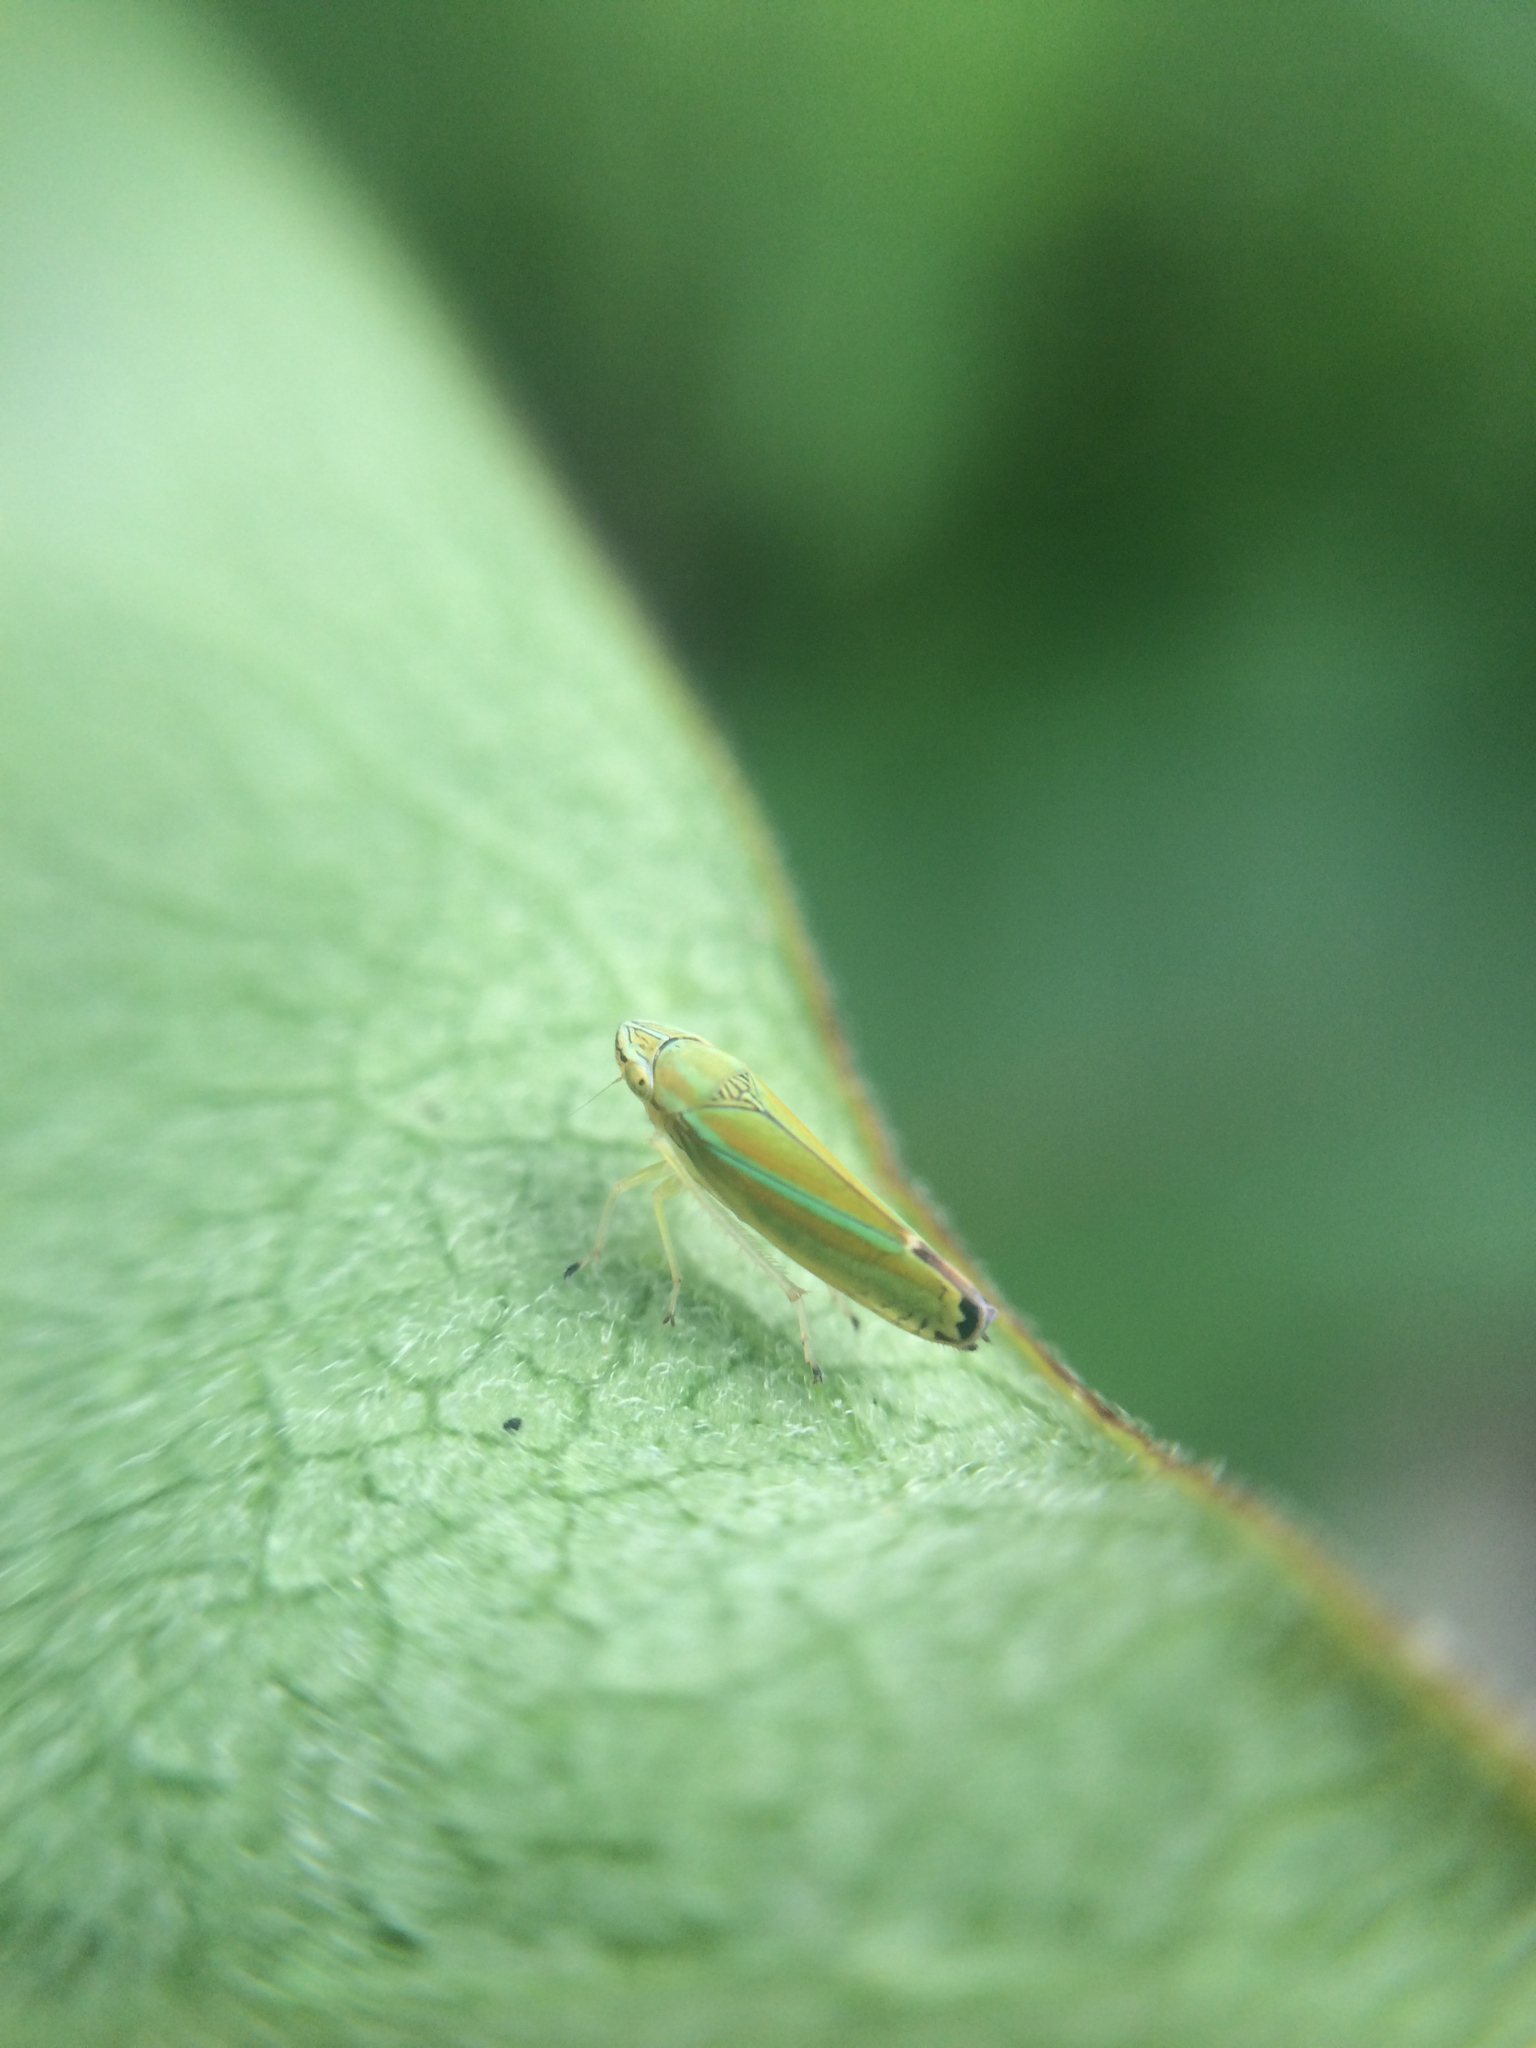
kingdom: Animalia
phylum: Arthropoda
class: Insecta
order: Hemiptera
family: Cicadellidae
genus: Graphocephala
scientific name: Graphocephala versuta
